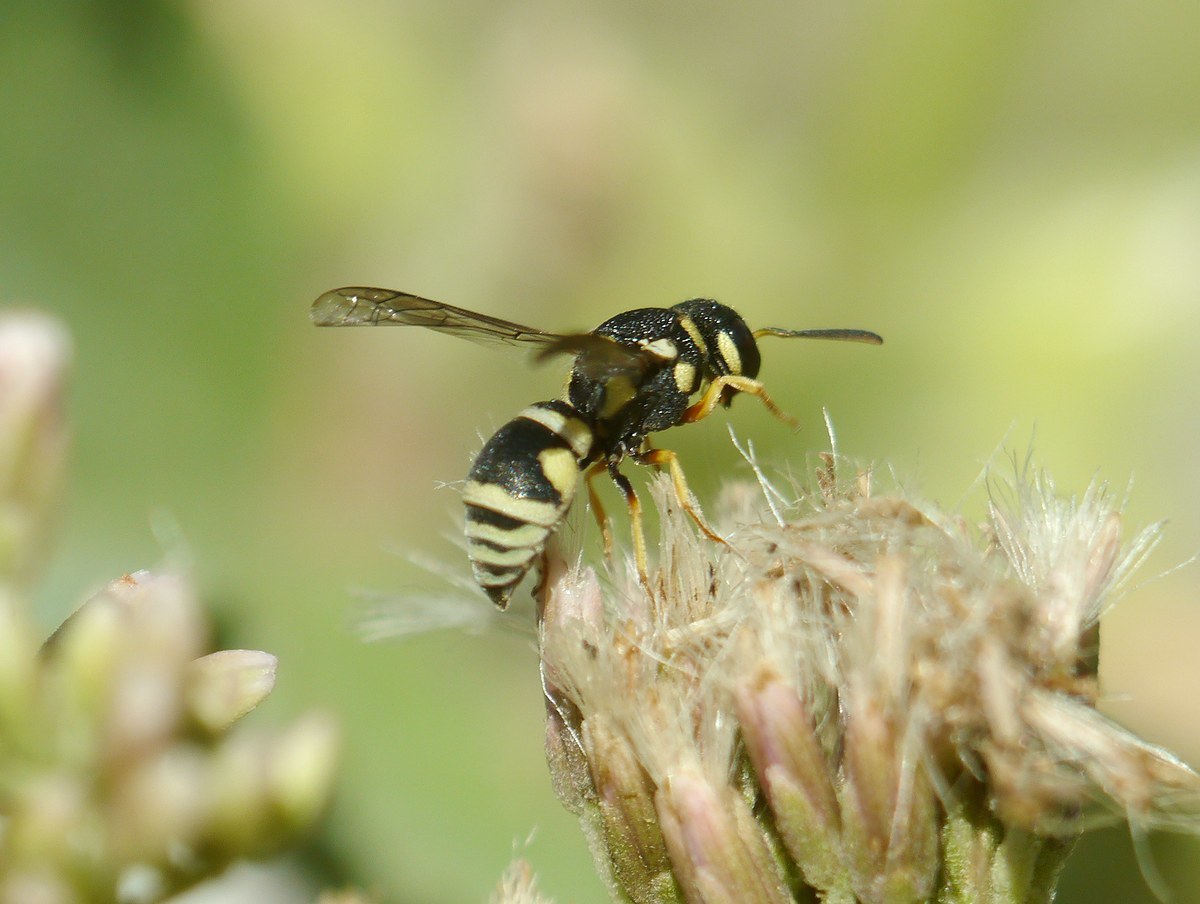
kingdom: Animalia
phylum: Arthropoda
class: Insecta
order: Hymenoptera
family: Eumenidae
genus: Eustenancistrocerus
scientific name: Eustenancistrocerus amadanensis
